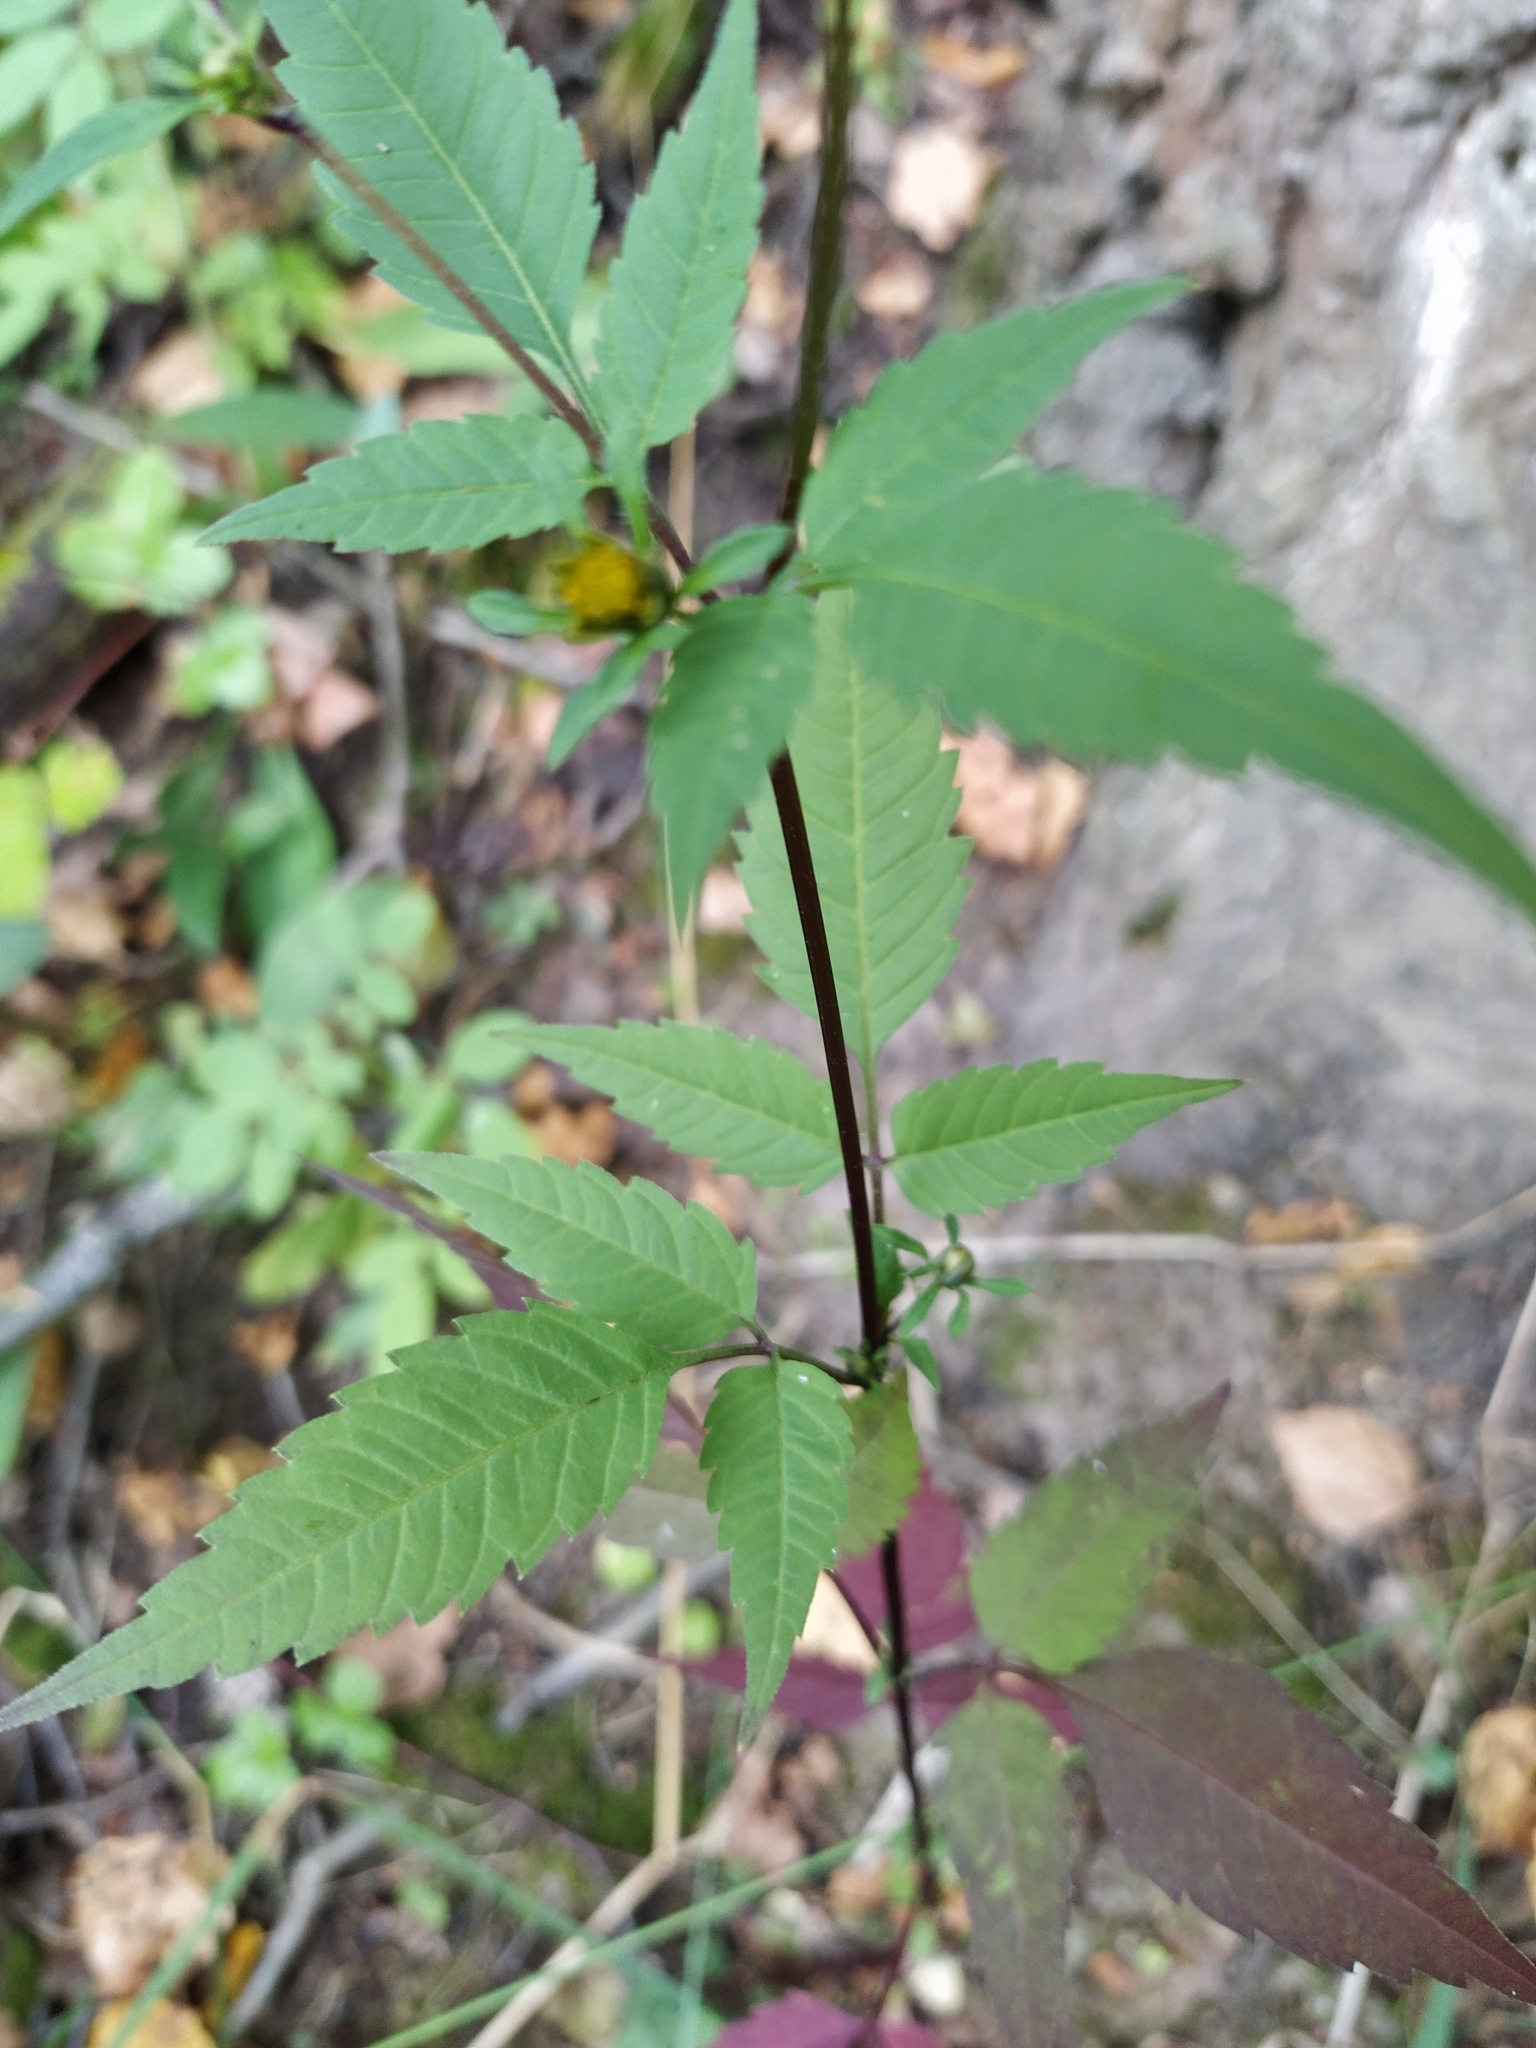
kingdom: Plantae
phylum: Tracheophyta
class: Magnoliopsida
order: Asterales
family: Asteraceae
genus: Bidens
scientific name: Bidens frondosa
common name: Beggarticks
